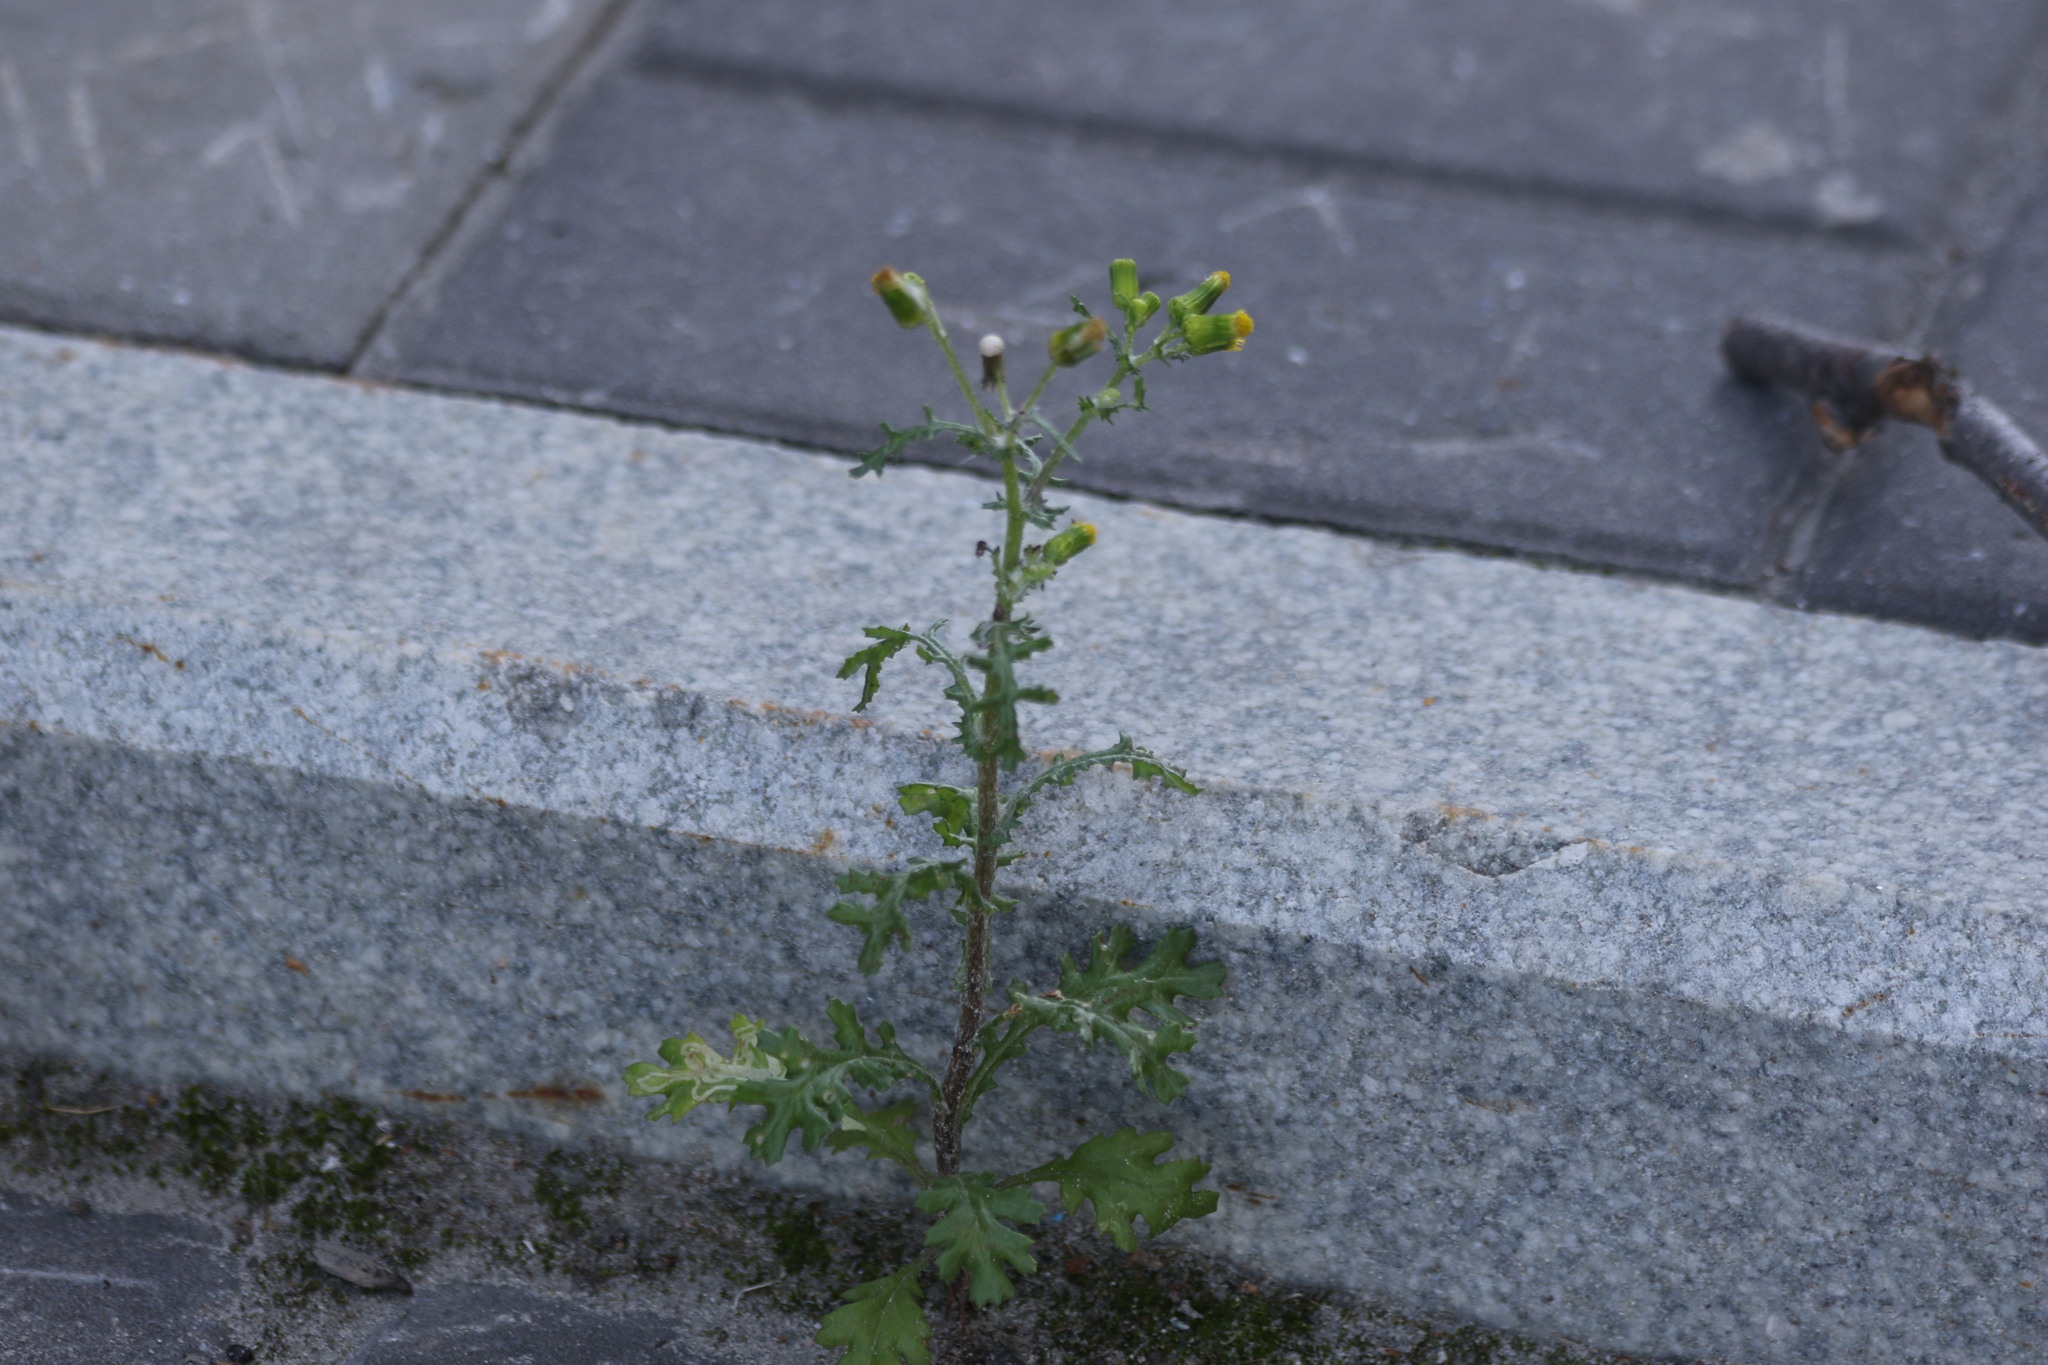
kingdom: Plantae
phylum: Tracheophyta
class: Magnoliopsida
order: Asterales
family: Asteraceae
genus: Senecio
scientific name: Senecio vulgaris
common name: Old-man-in-the-spring
